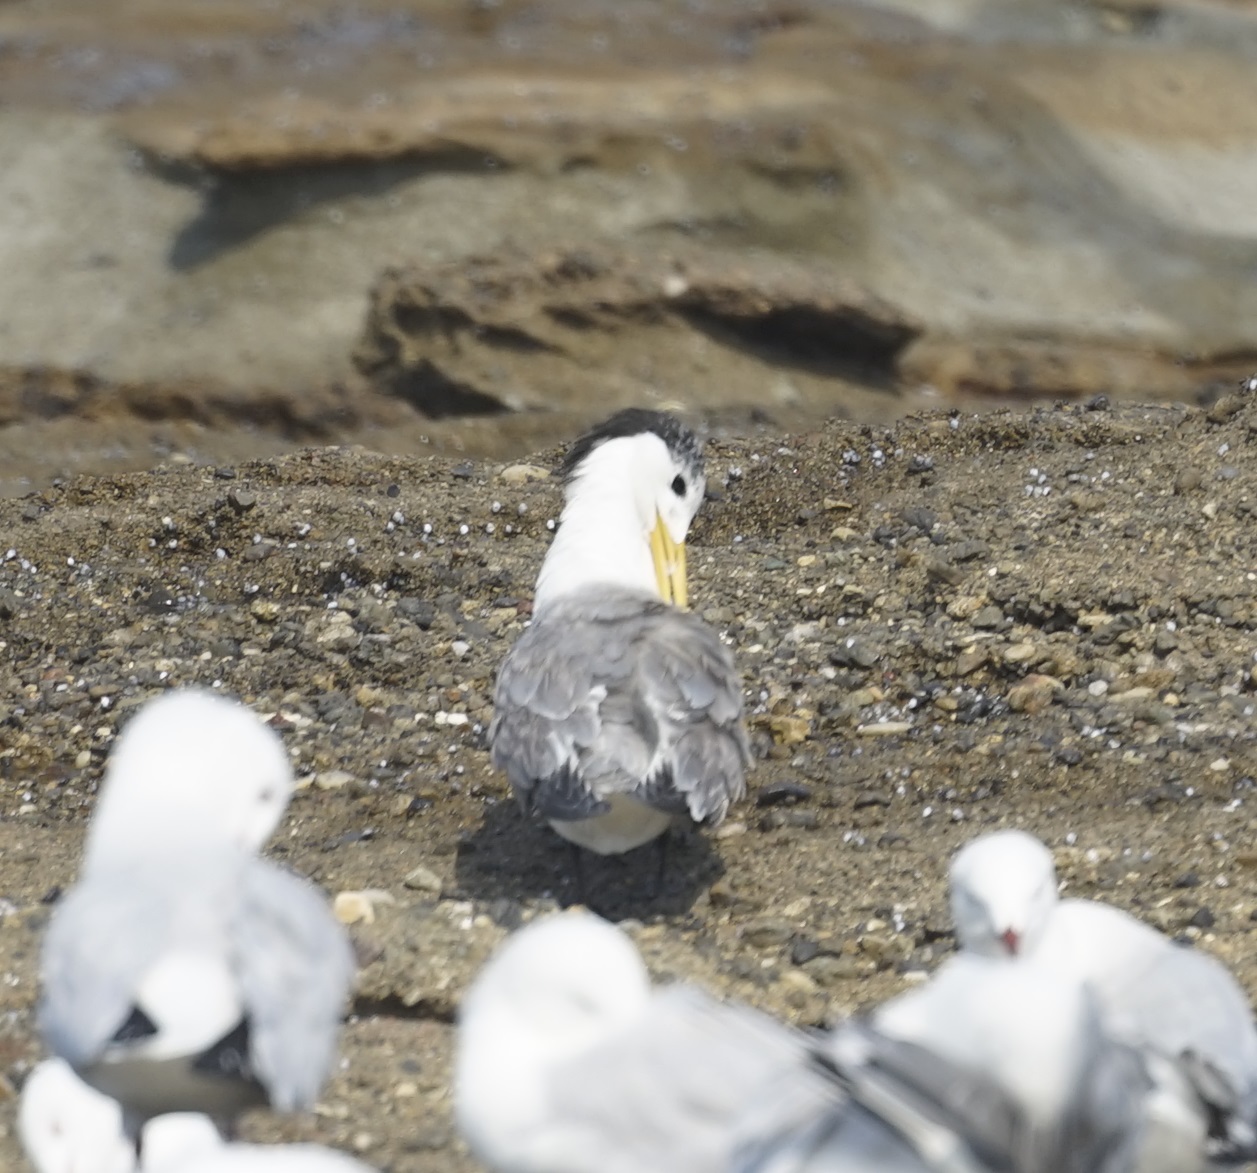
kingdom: Animalia
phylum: Chordata
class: Aves
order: Charadriiformes
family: Laridae
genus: Thalasseus
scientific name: Thalasseus bergii
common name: Greater crested tern
